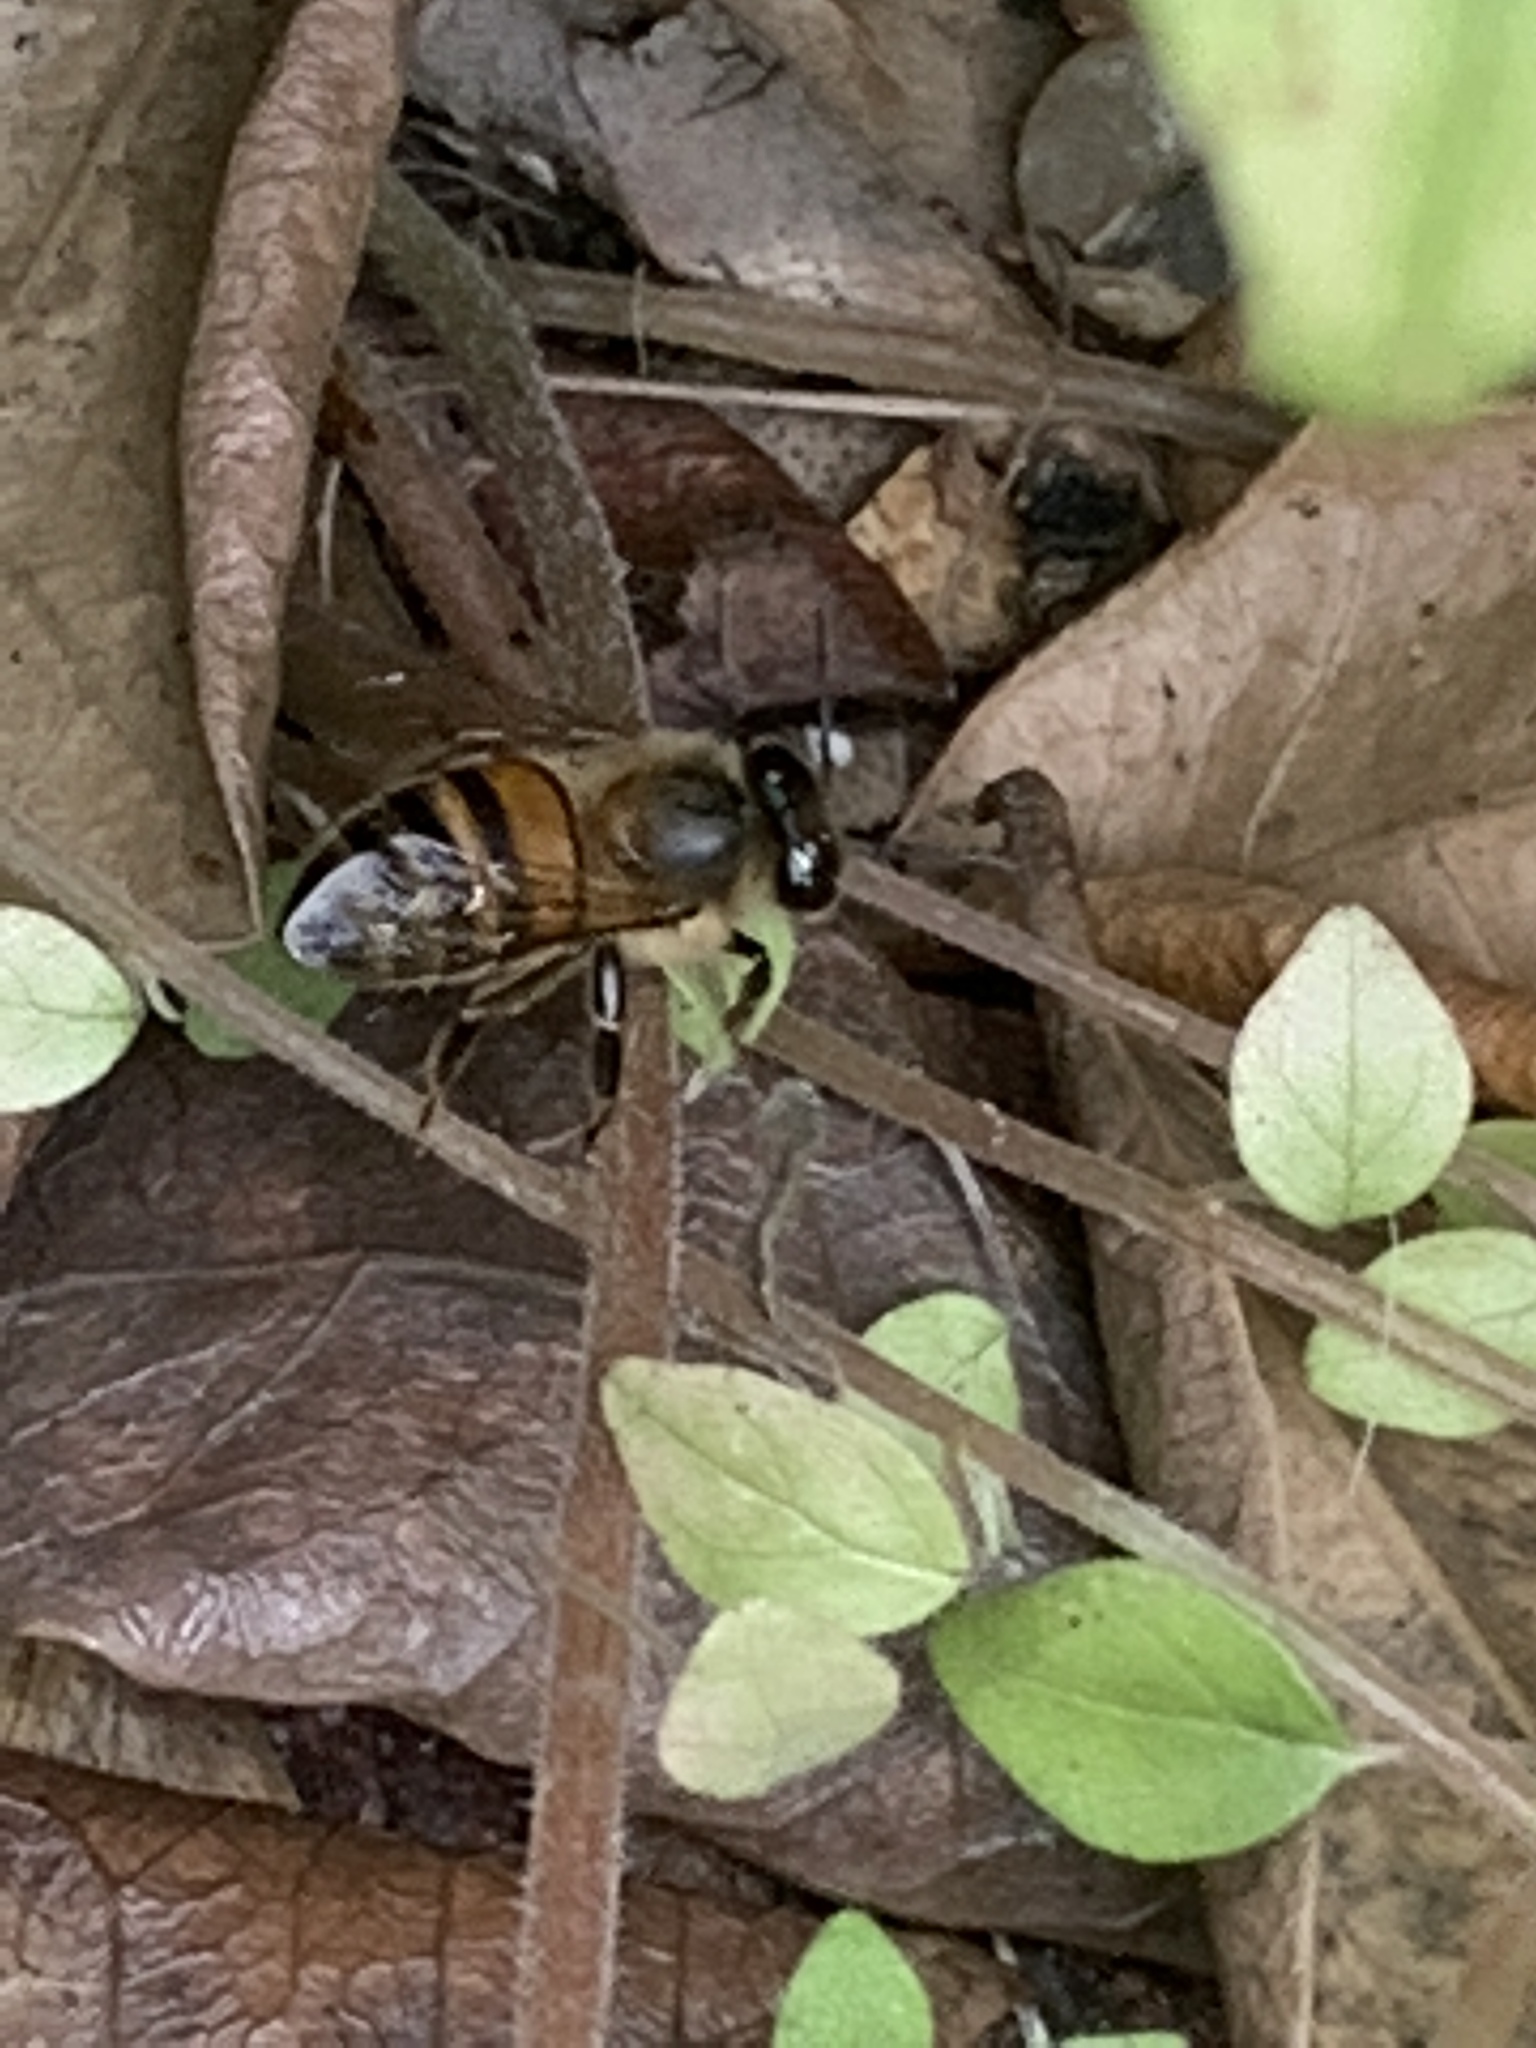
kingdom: Animalia
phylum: Arthropoda
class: Insecta
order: Hymenoptera
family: Apidae
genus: Apis
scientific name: Apis mellifera
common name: Honey bee
